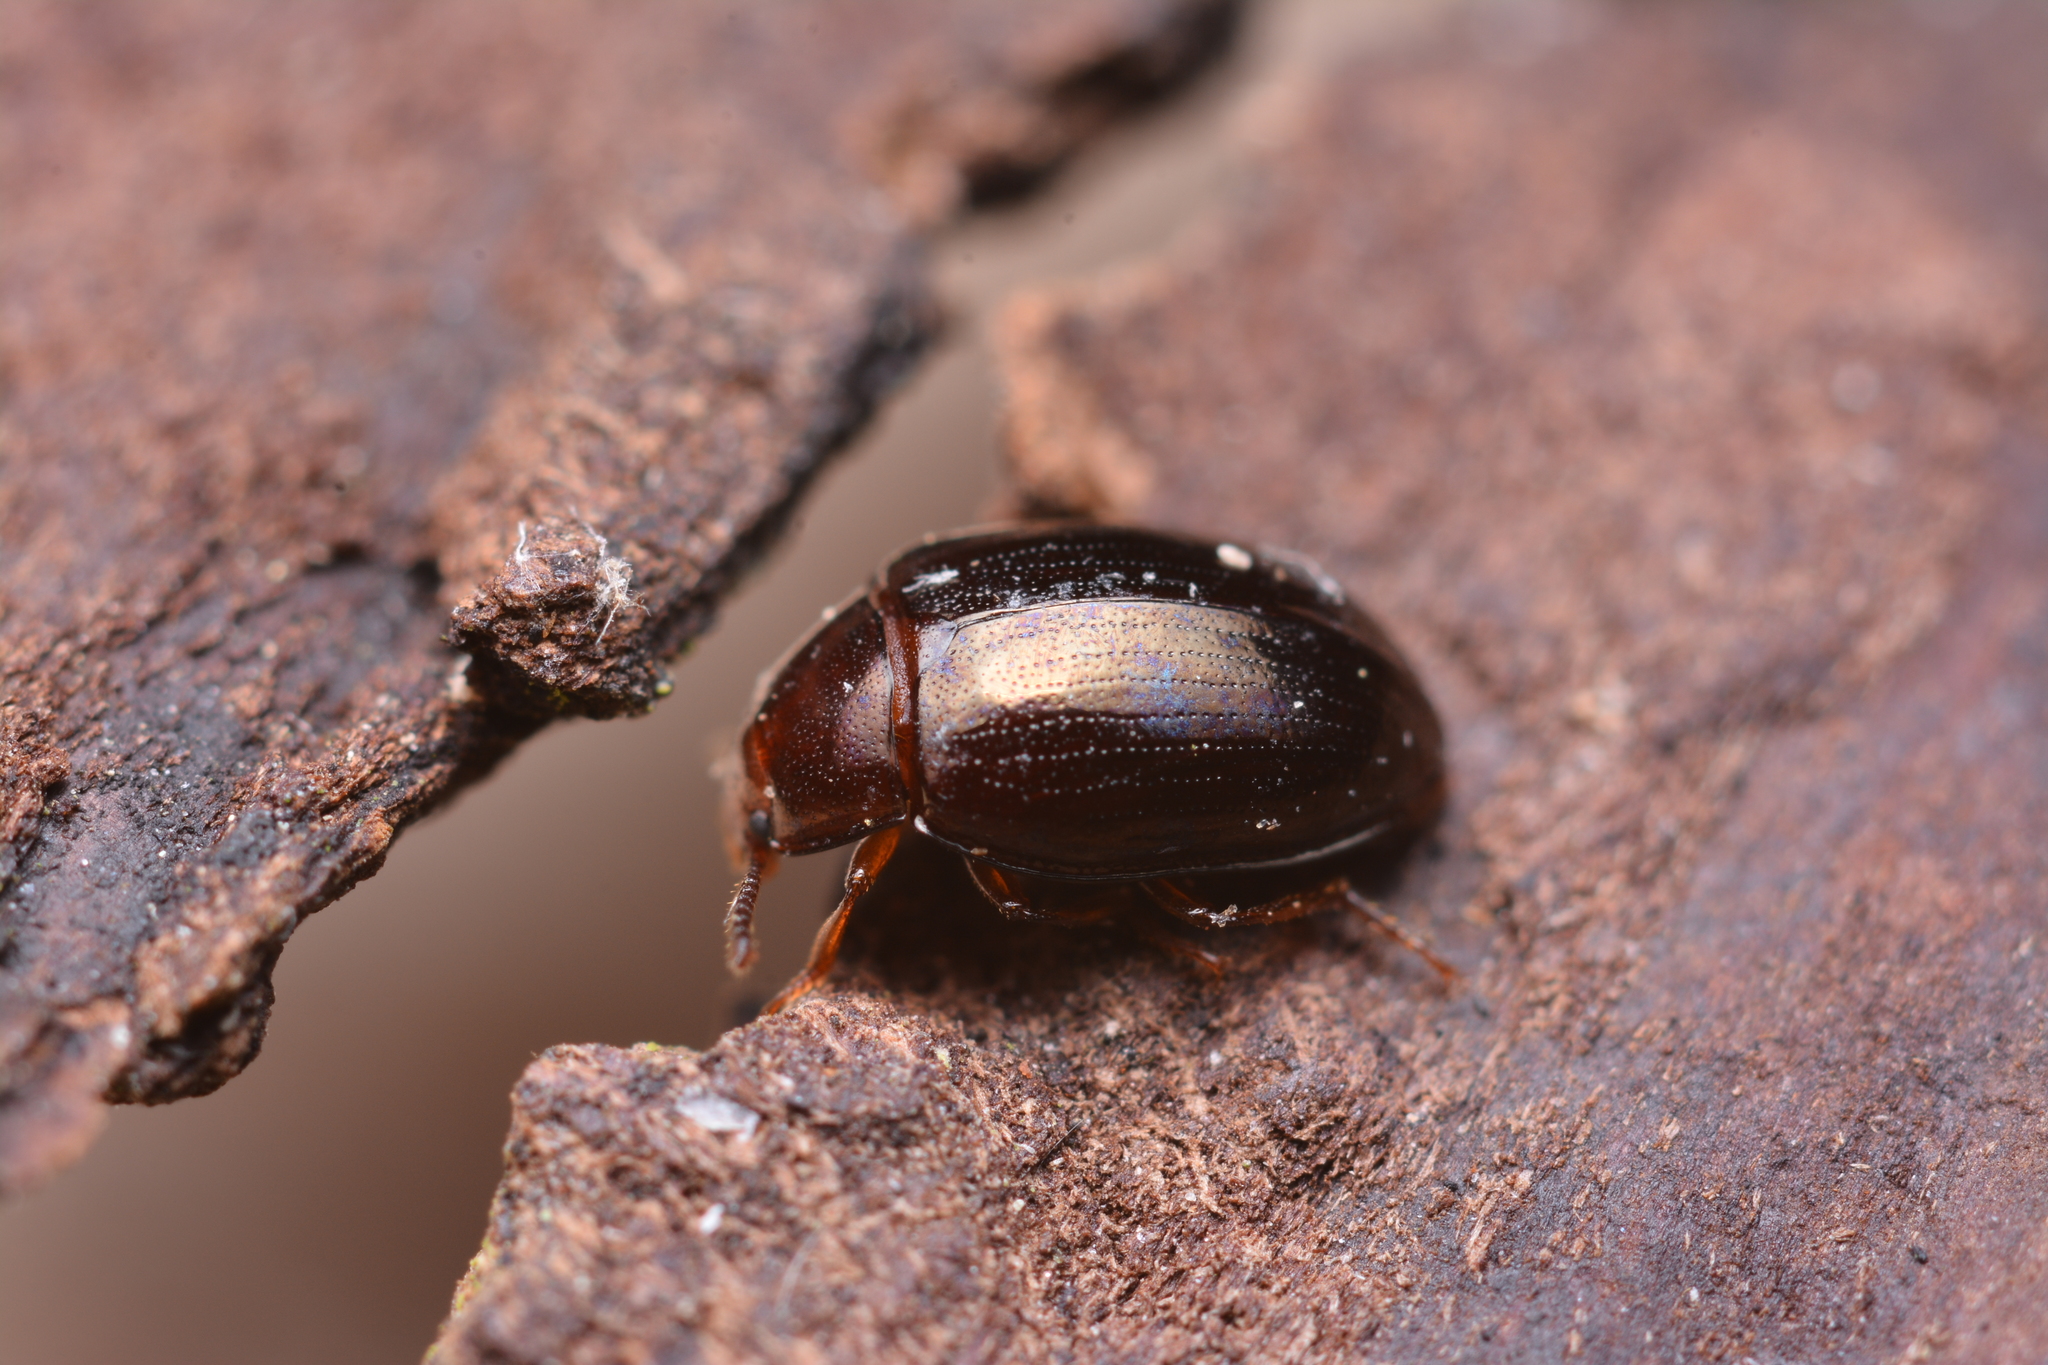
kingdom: Animalia
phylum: Arthropoda
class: Insecta
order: Coleoptera
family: Tenebrionidae
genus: Blapstinus
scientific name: Blapstinus metallicus
